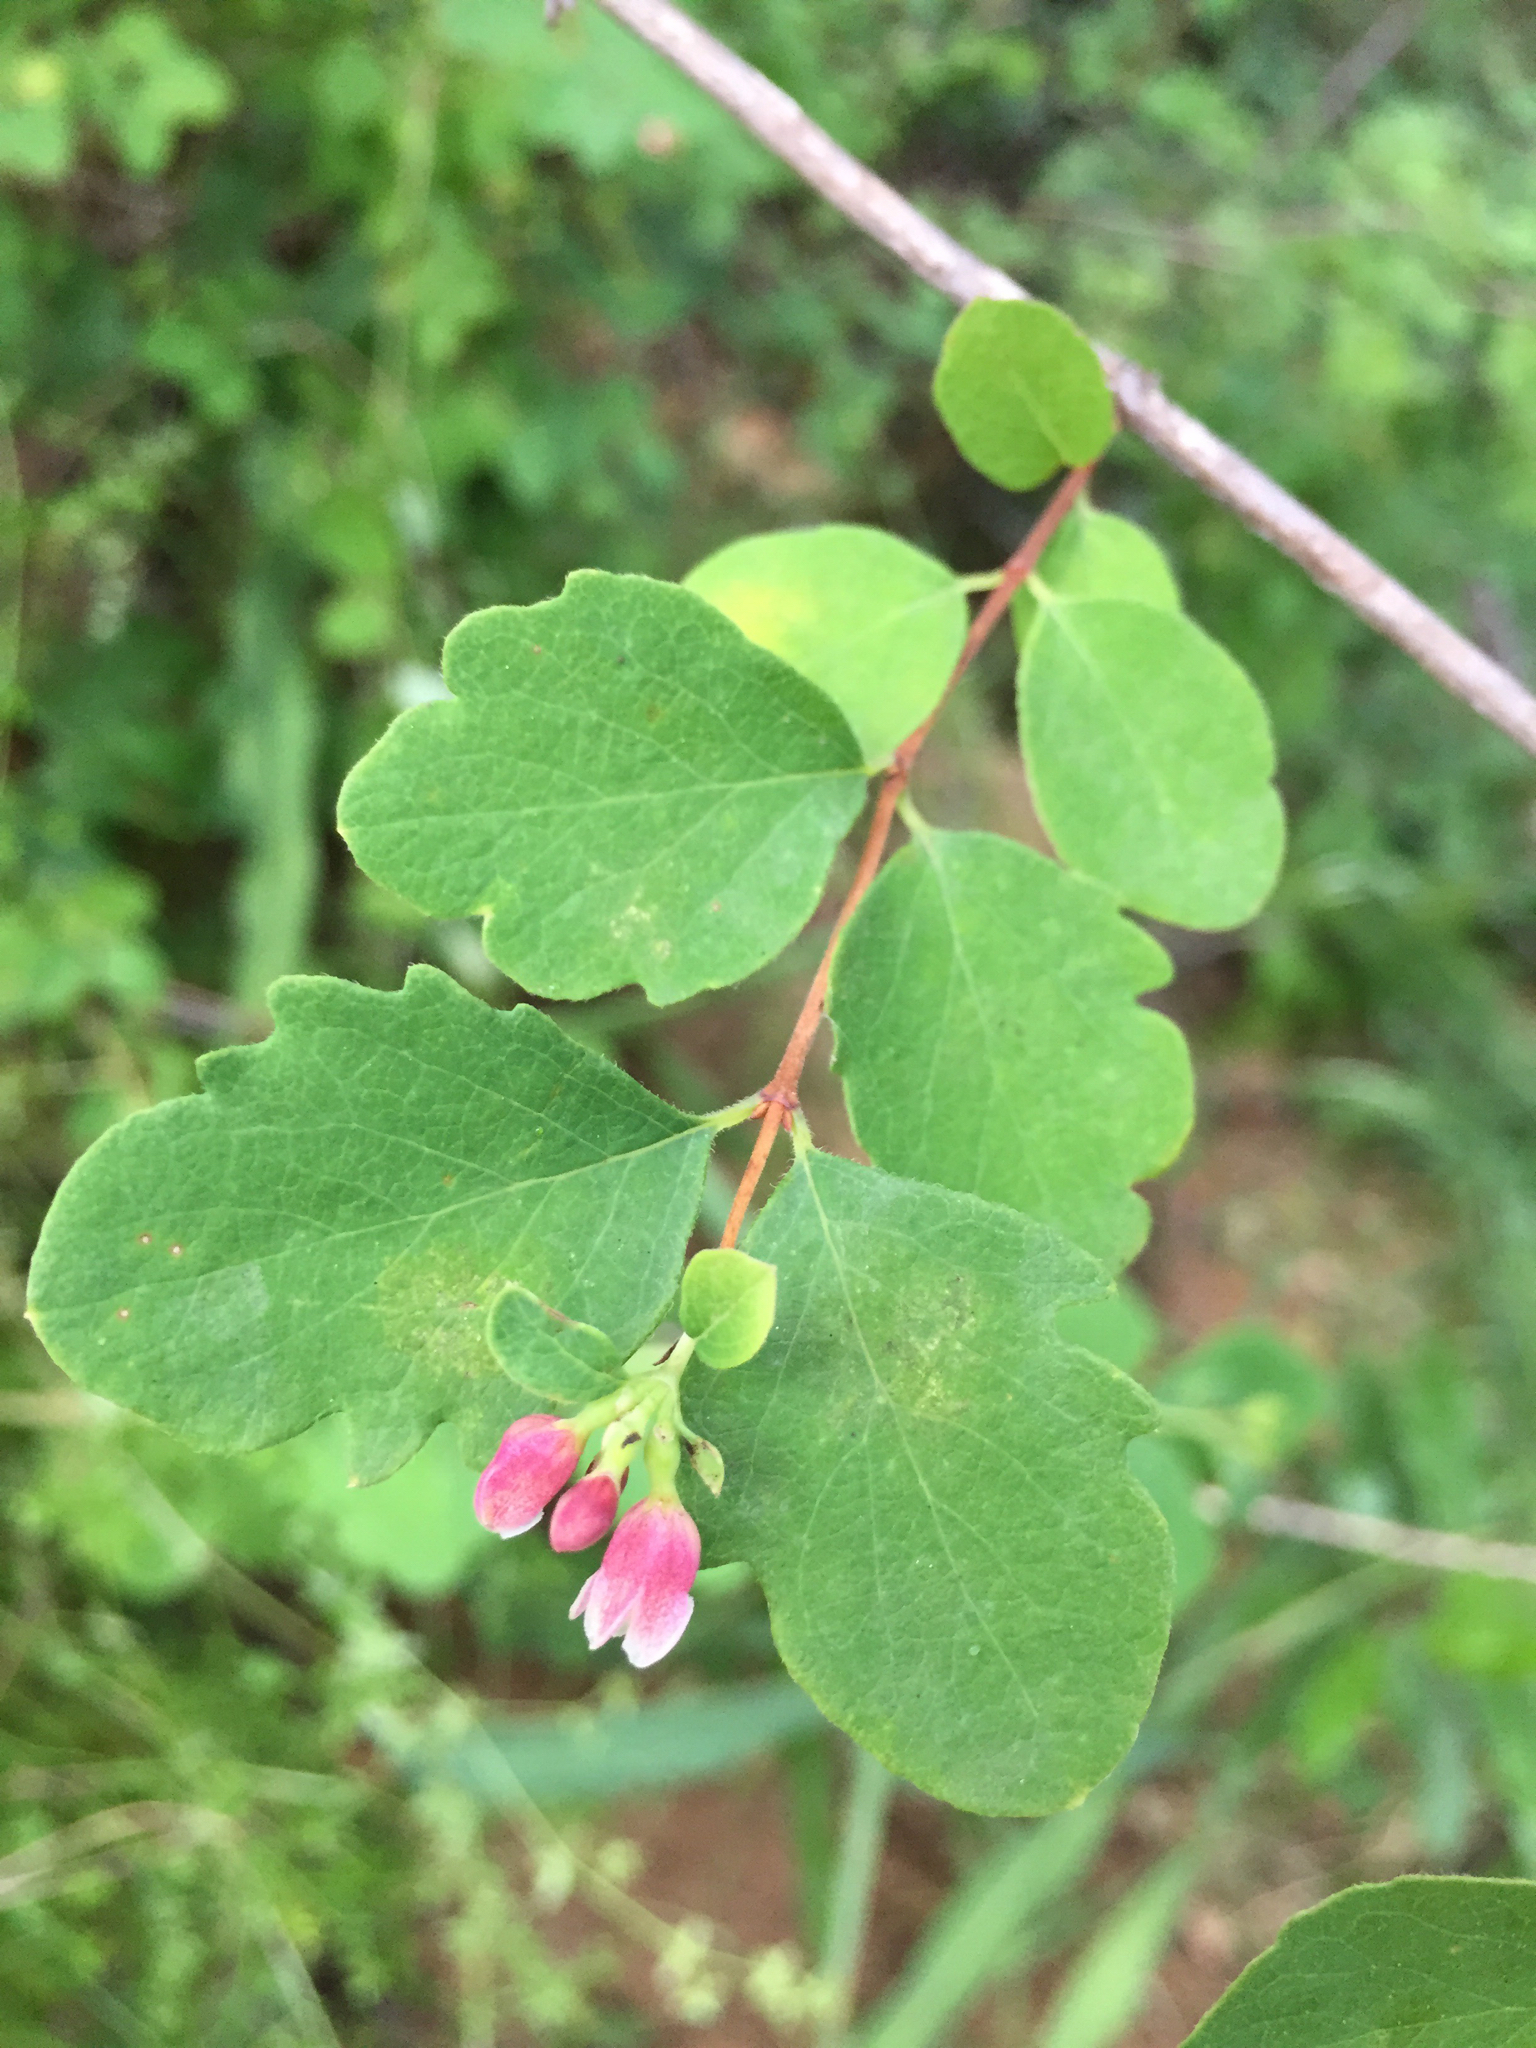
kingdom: Plantae
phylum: Tracheophyta
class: Magnoliopsida
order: Dipsacales
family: Caprifoliaceae
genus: Symphoricarpos
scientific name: Symphoricarpos albus
